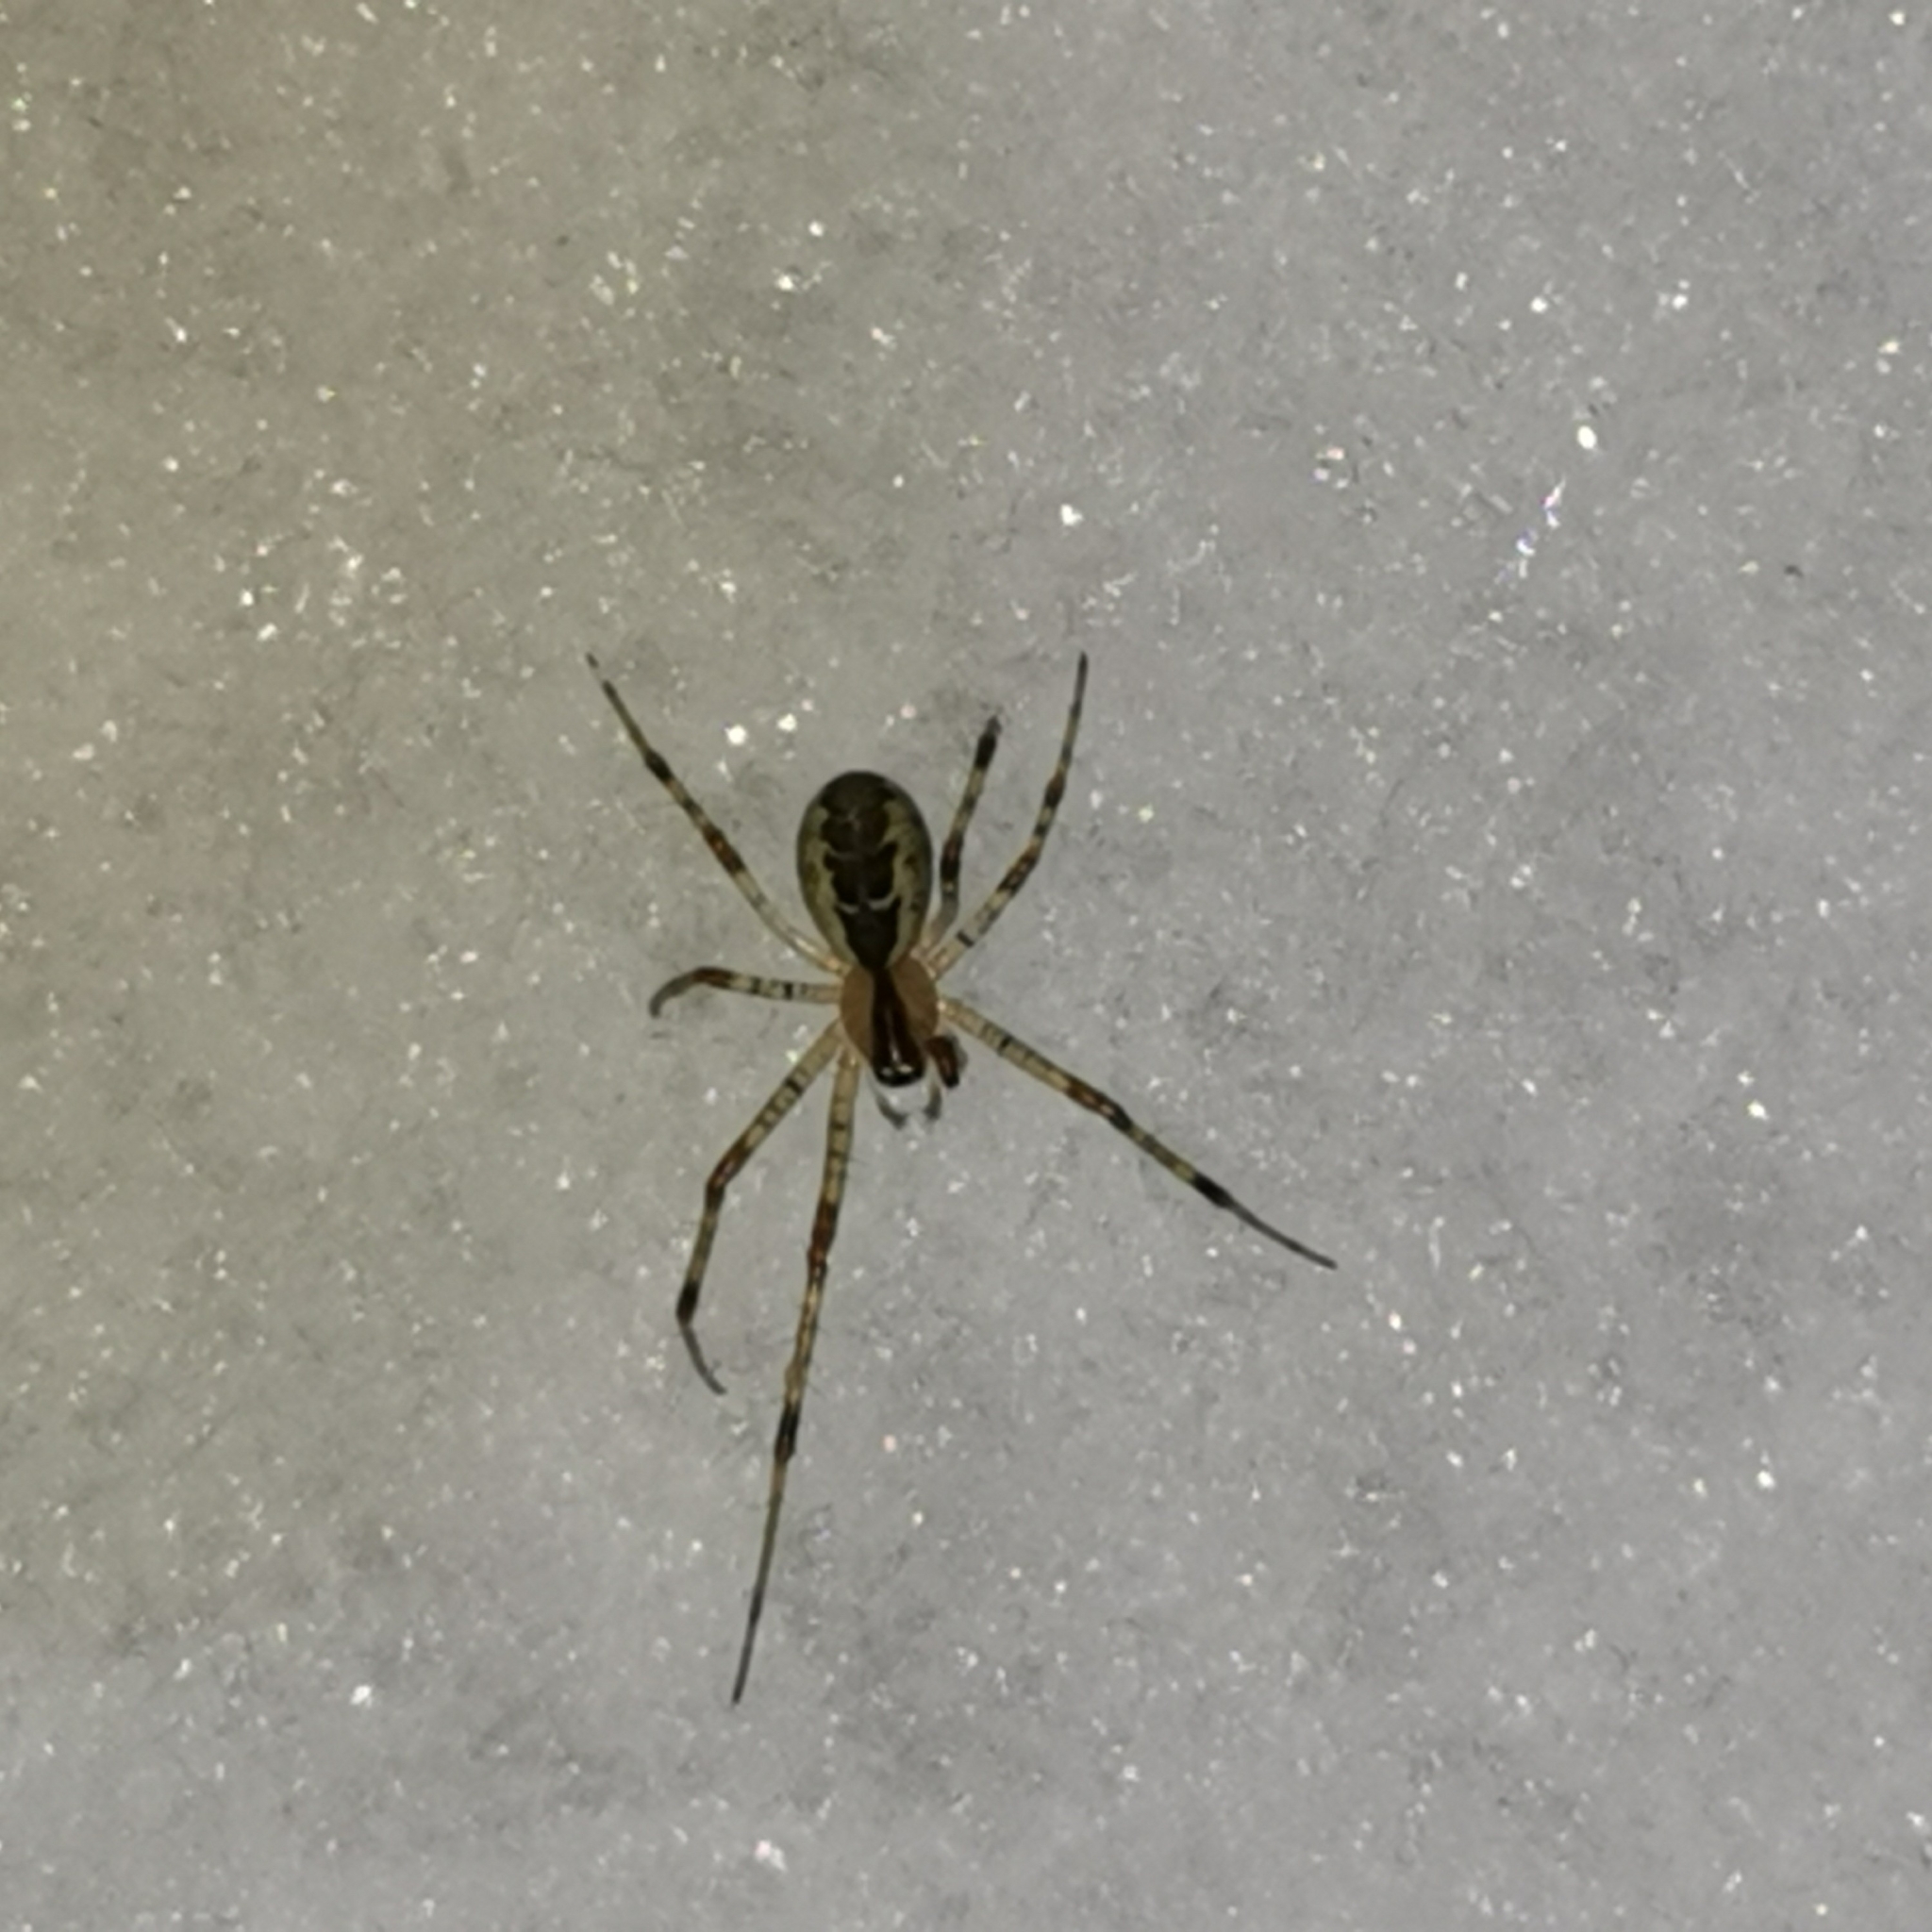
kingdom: Animalia
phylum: Arthropoda
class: Arachnida
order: Araneae
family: Linyphiidae
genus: Pityohyphantes
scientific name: Pityohyphantes phrygianus
